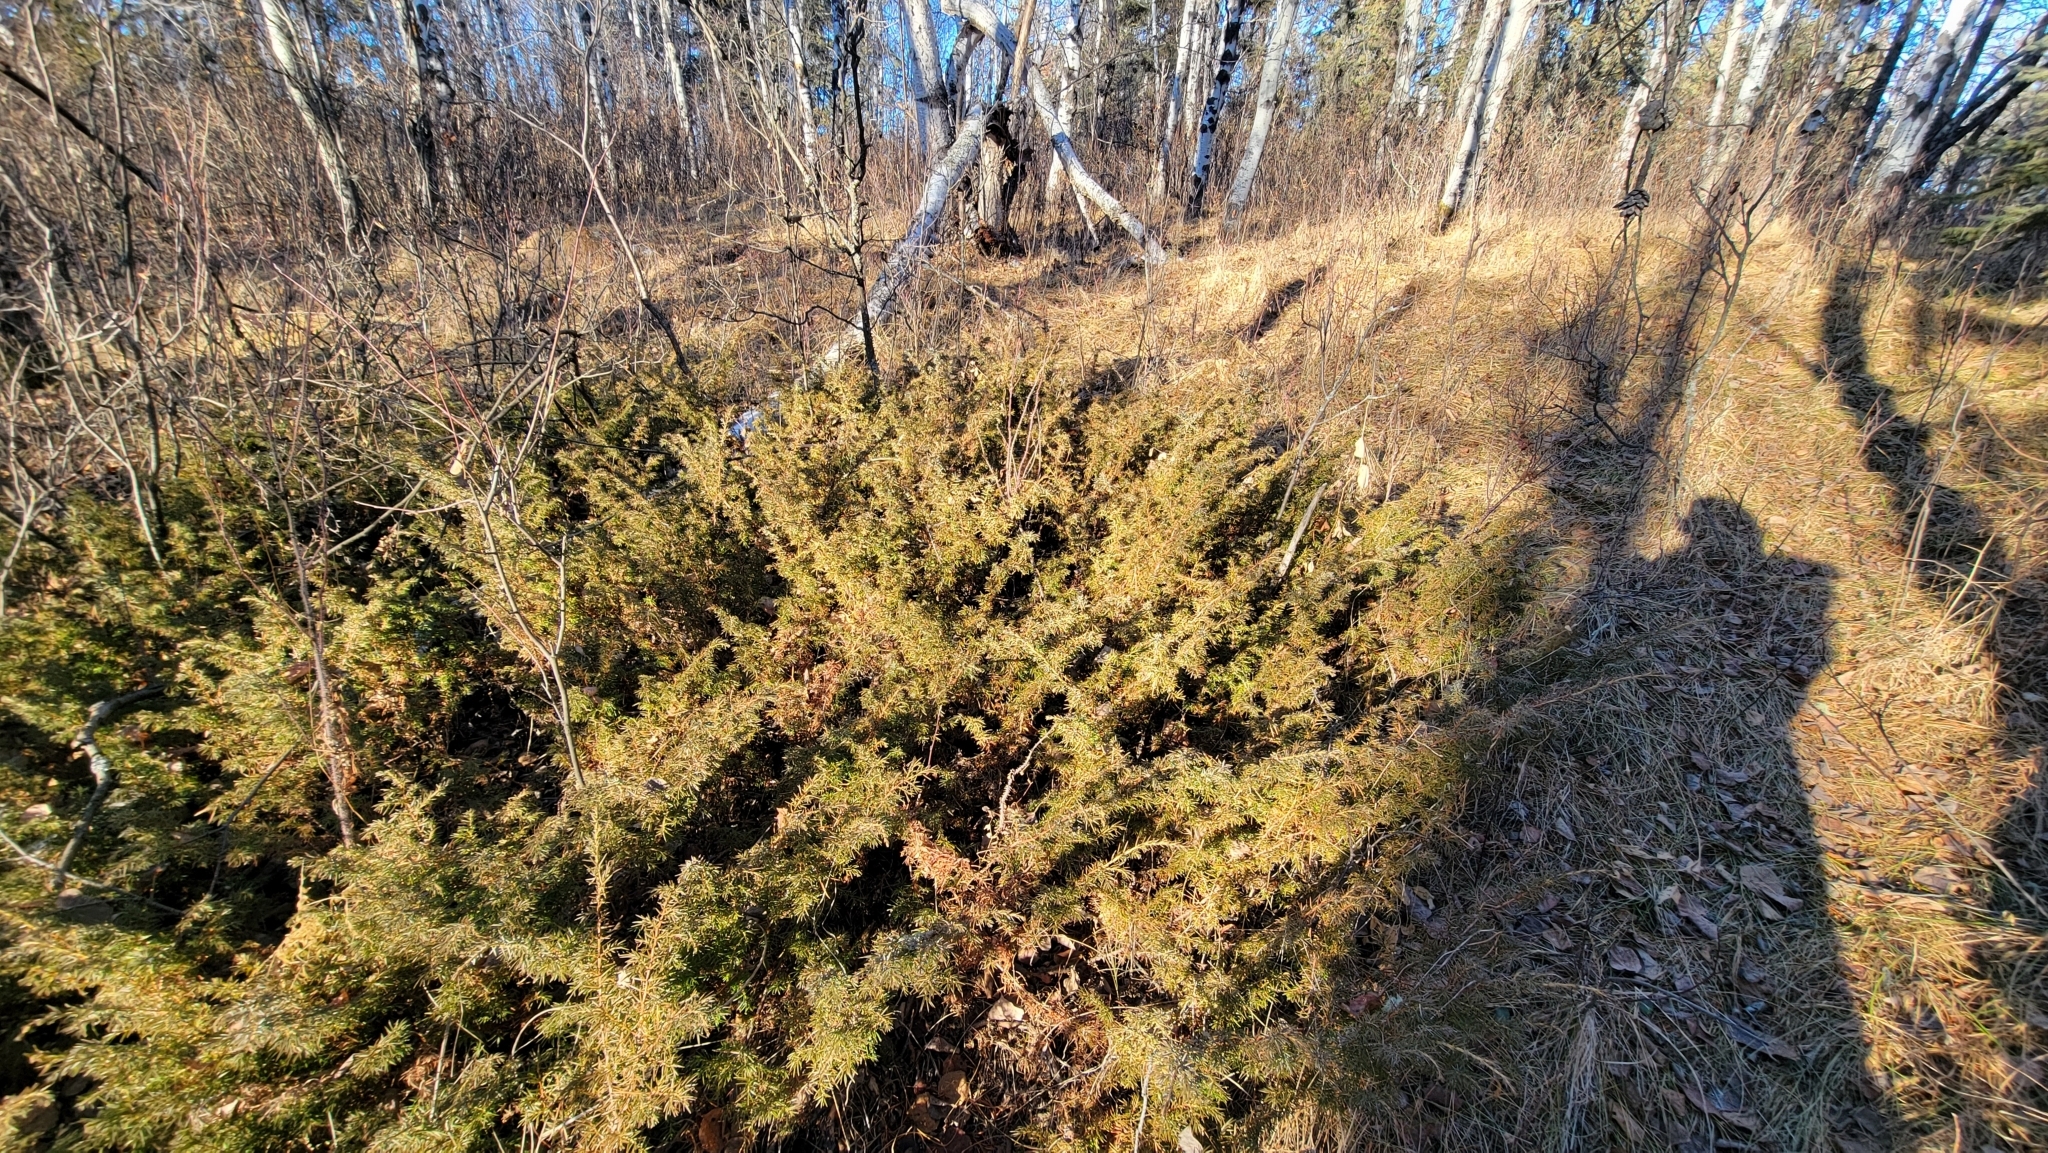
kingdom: Plantae
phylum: Tracheophyta
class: Pinopsida
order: Pinales
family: Cupressaceae
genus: Juniperus
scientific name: Juniperus communis
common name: Common juniper
